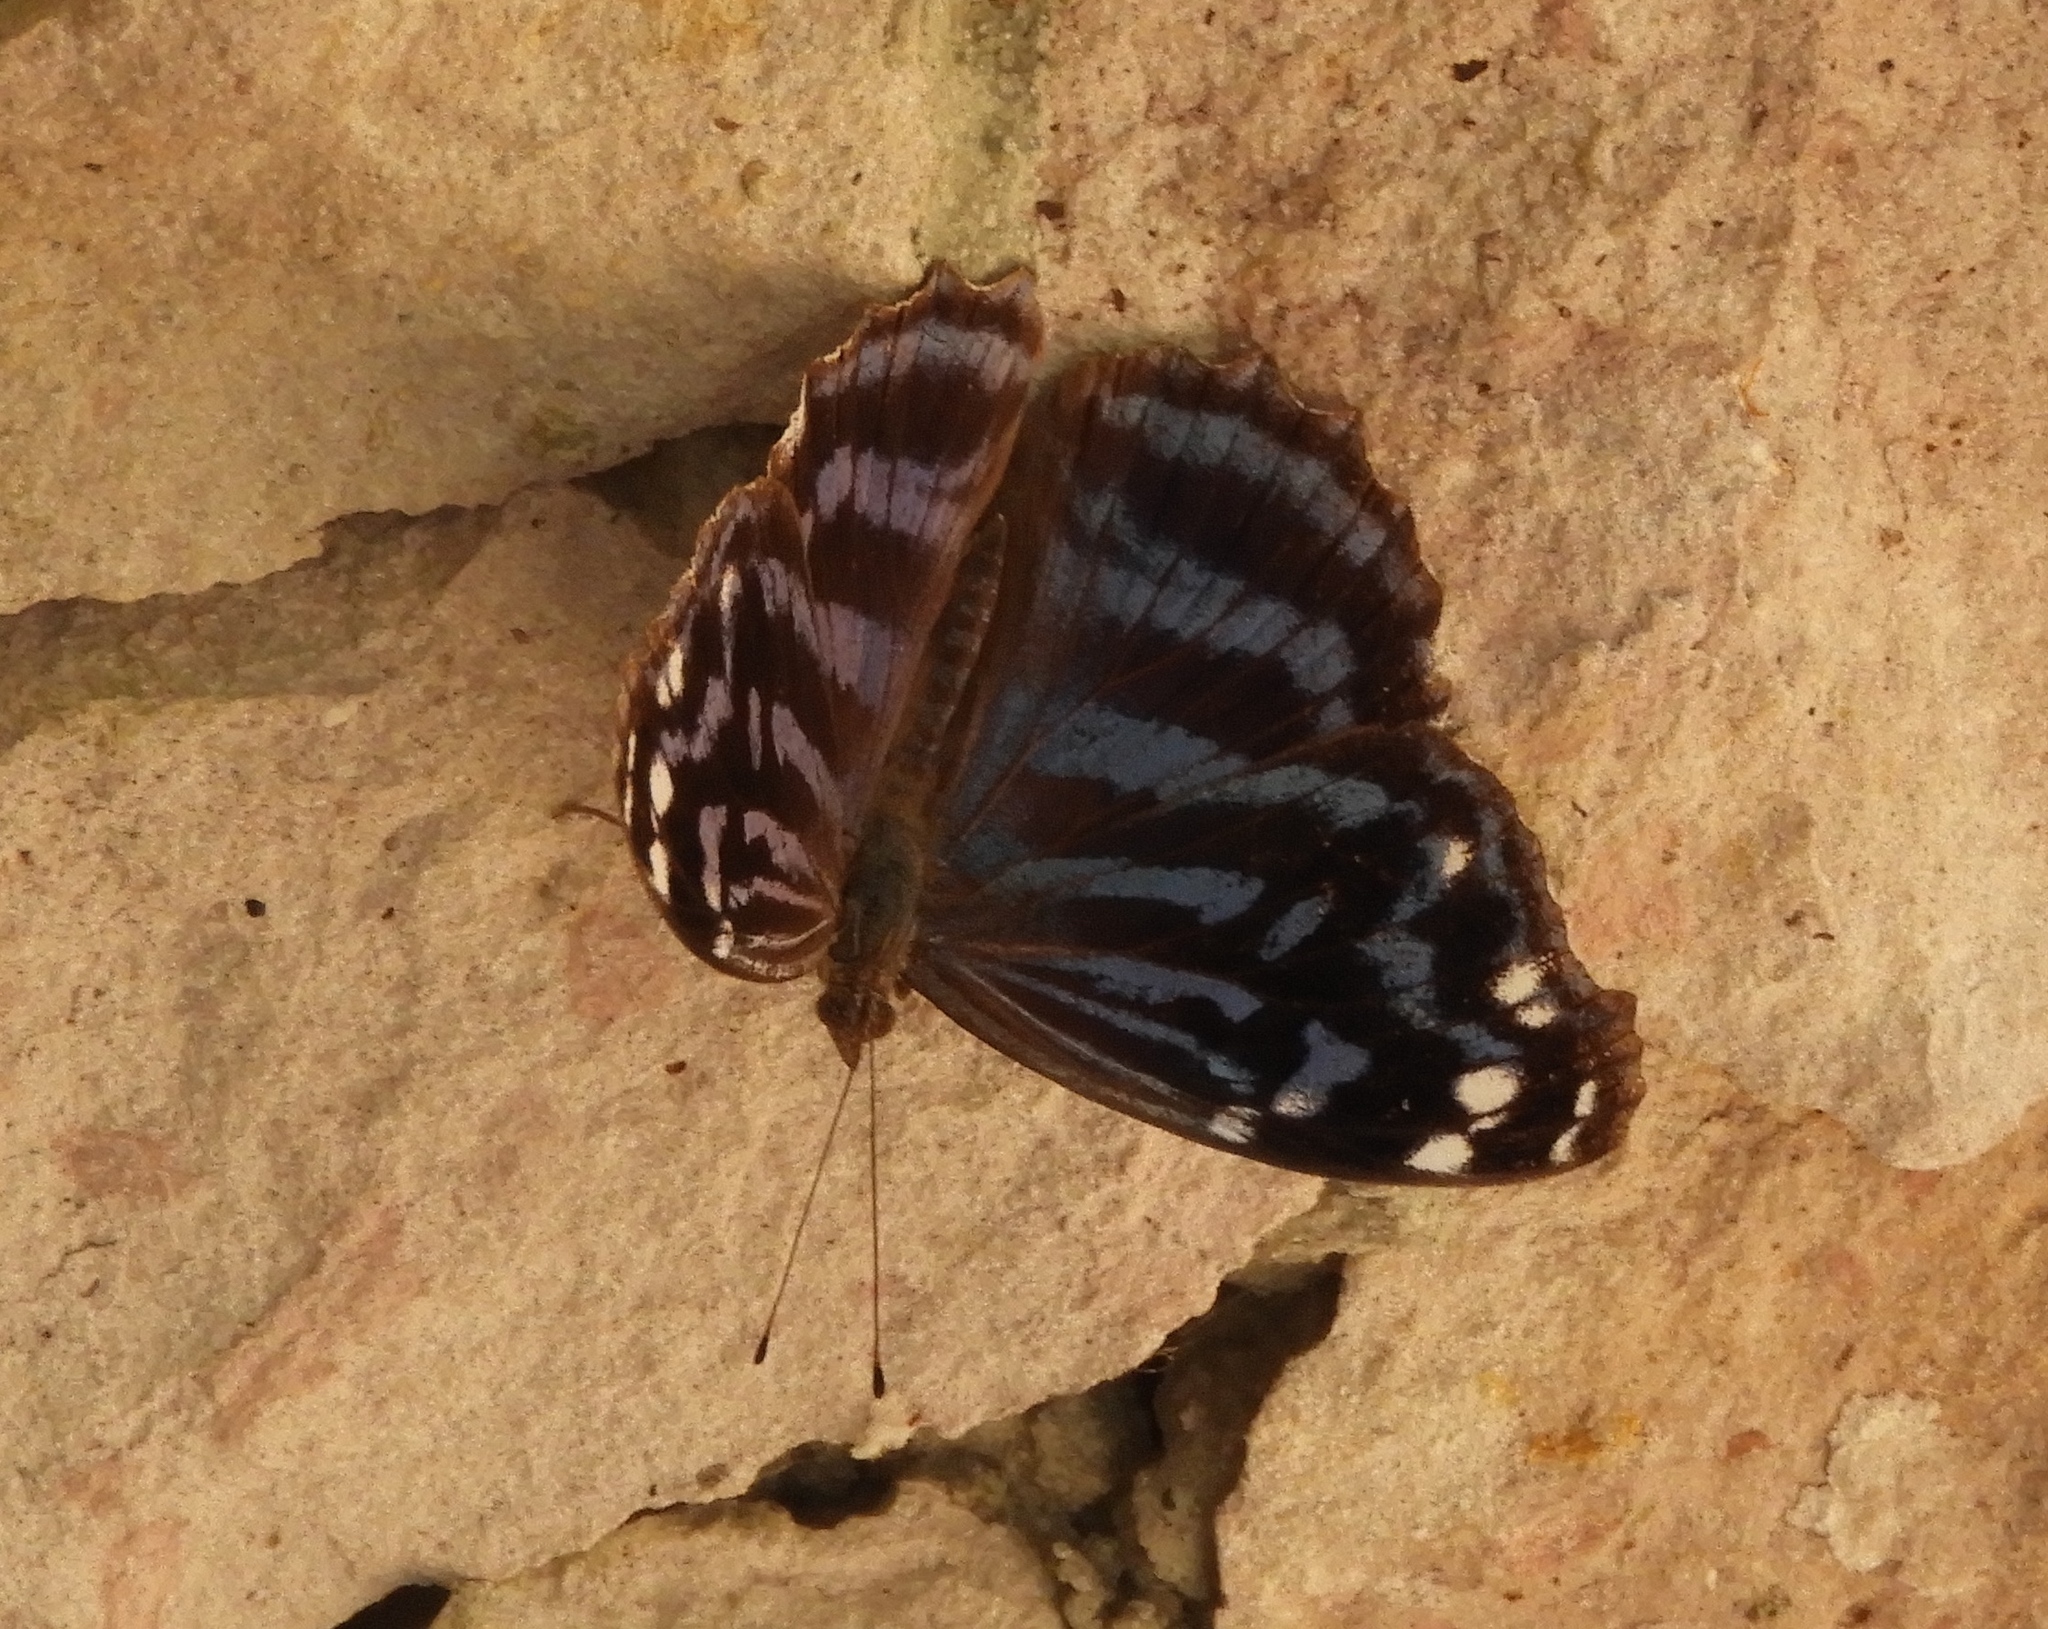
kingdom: Animalia
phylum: Arthropoda
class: Insecta
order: Lepidoptera
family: Nymphalidae
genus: Myscelia
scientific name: Myscelia ethusa
